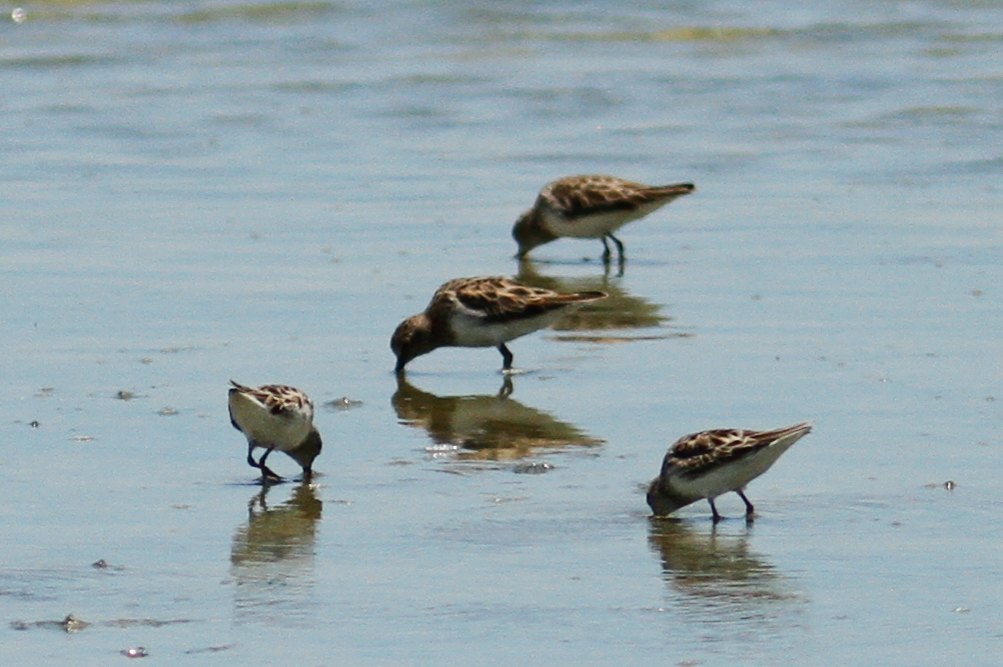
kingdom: Animalia
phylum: Chordata
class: Aves
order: Charadriiformes
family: Scolopacidae
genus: Calidris
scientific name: Calidris minutilla
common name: Least sandpiper
